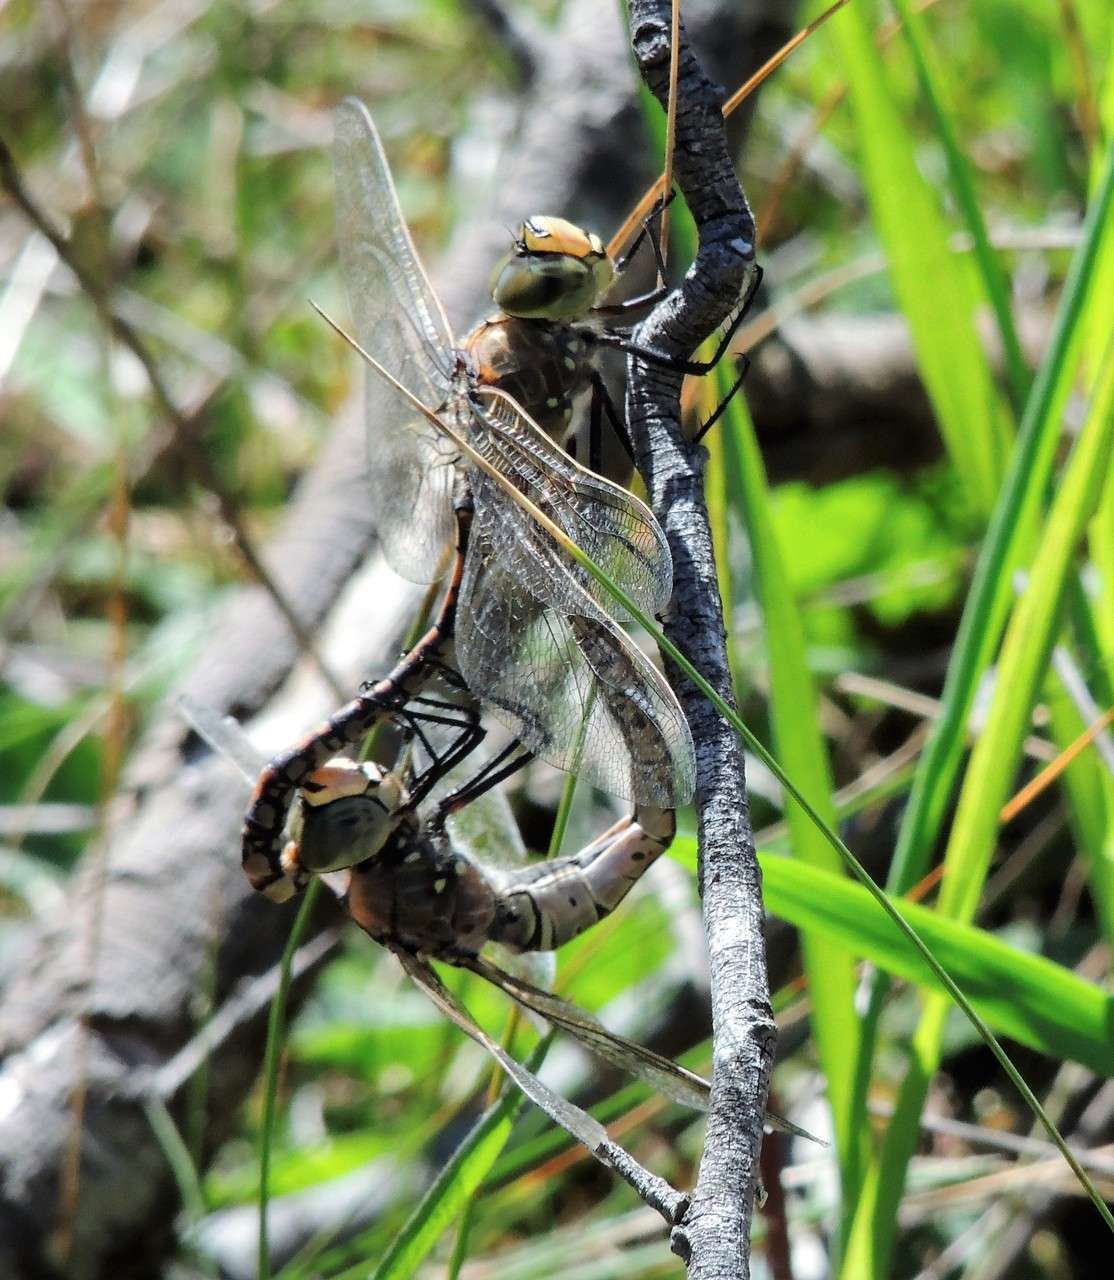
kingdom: Animalia
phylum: Arthropoda
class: Insecta
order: Odonata
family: Aeshnidae
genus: Anax
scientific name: Anax papuensis
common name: Australian emperor
